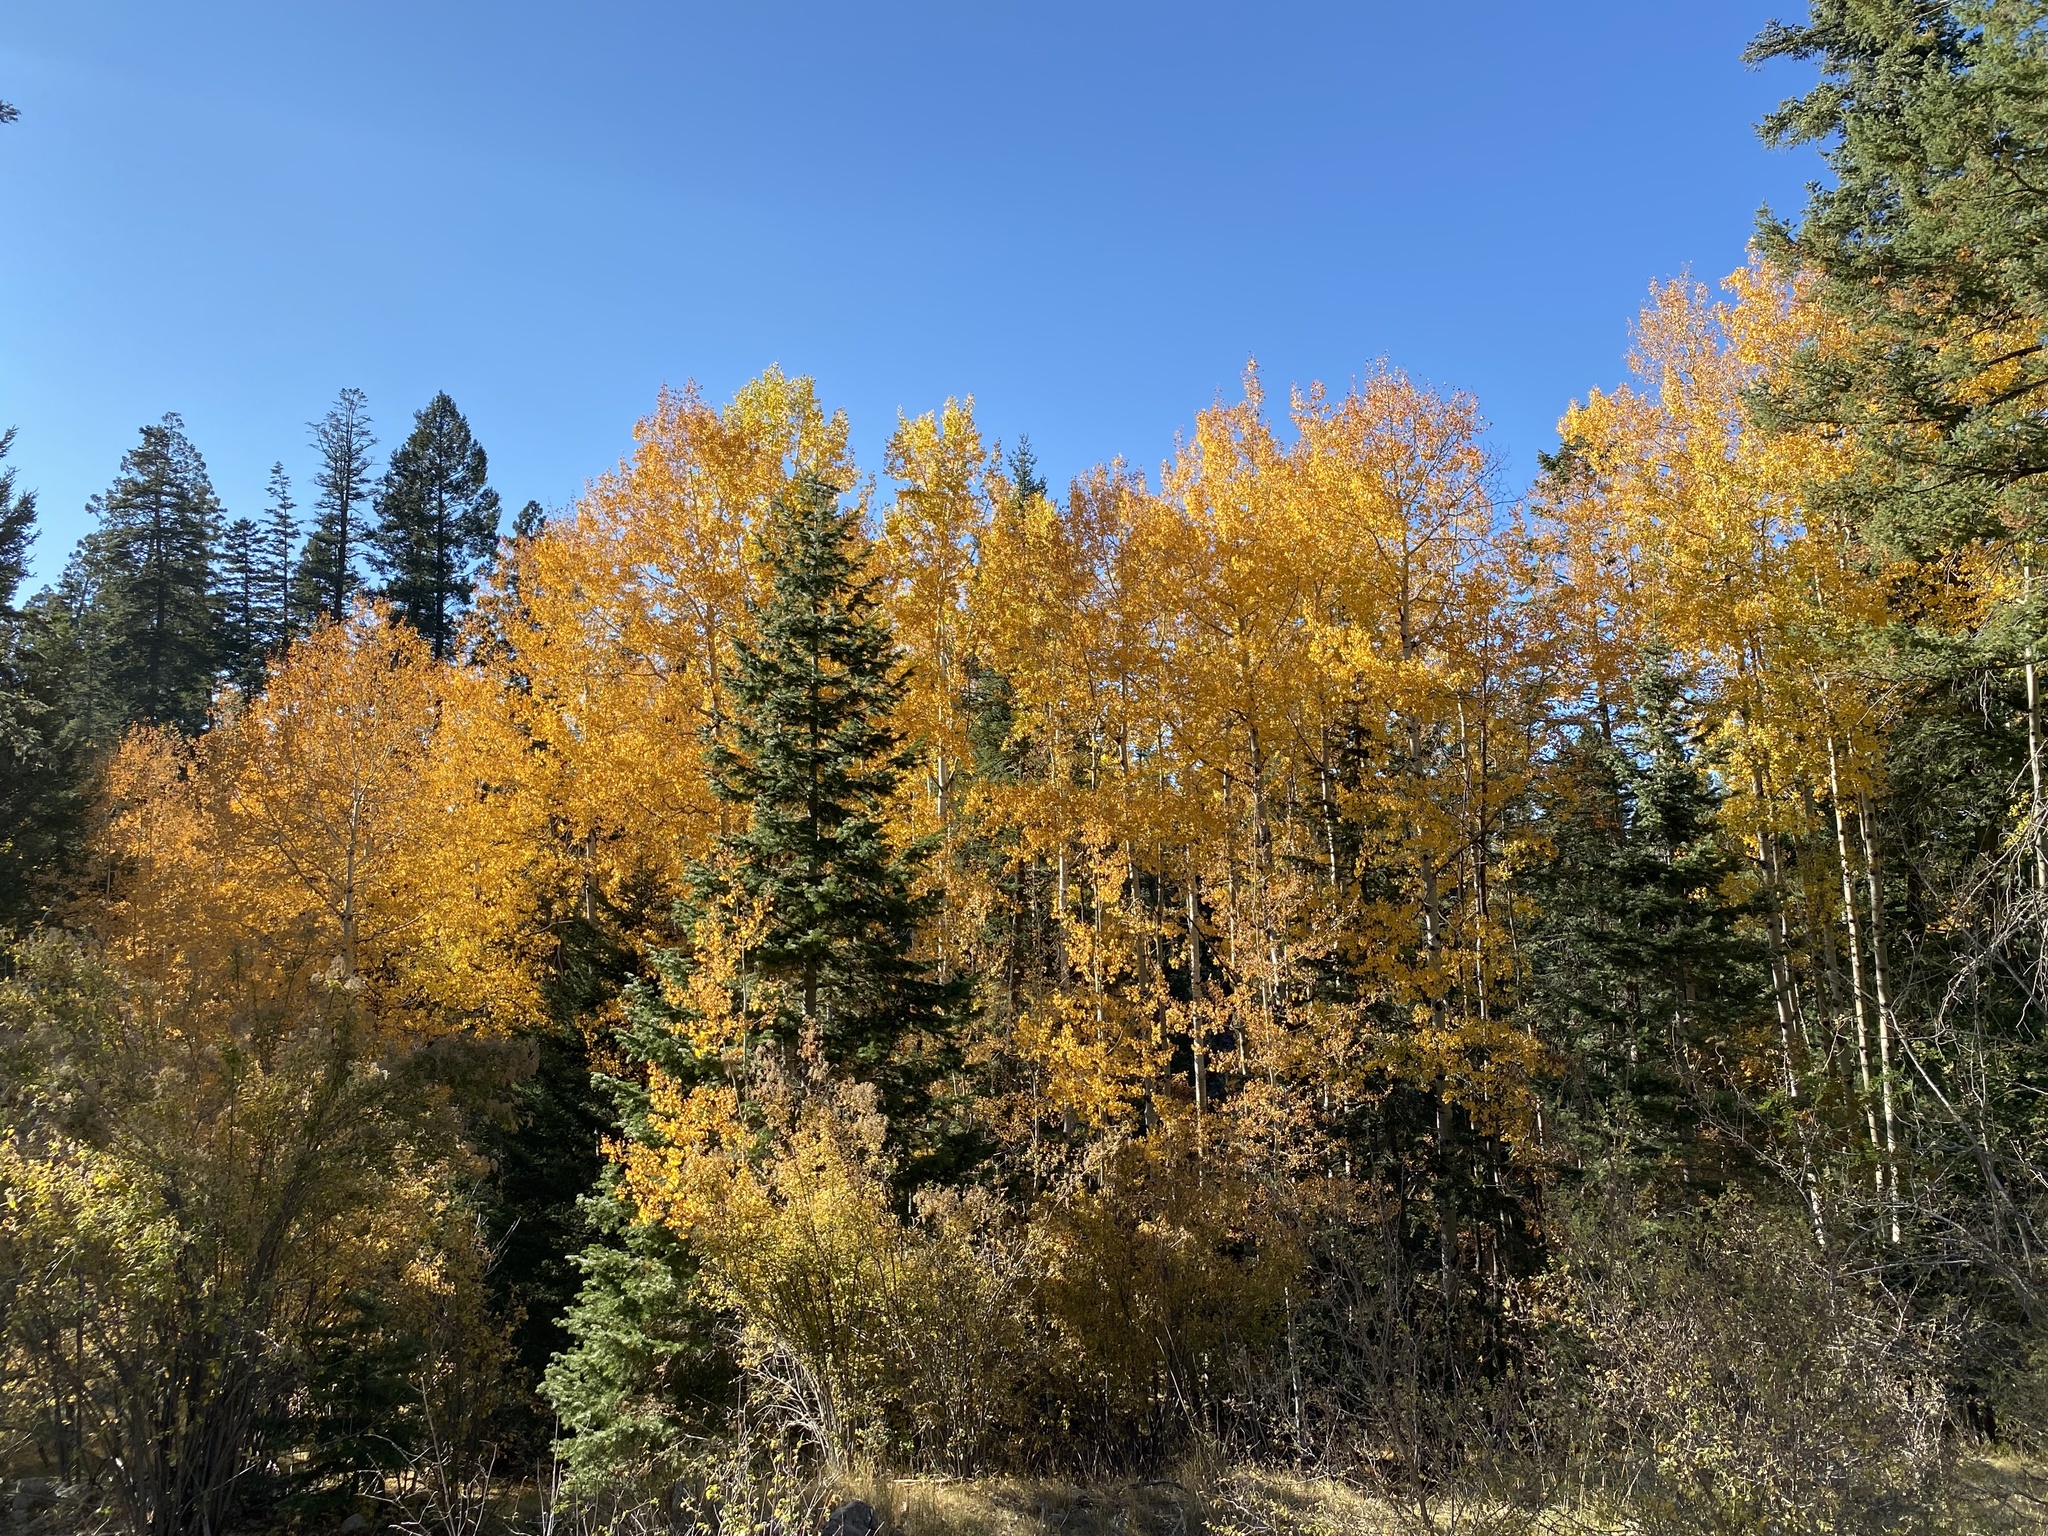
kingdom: Plantae
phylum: Tracheophyta
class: Magnoliopsida
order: Malpighiales
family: Salicaceae
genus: Populus
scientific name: Populus tremuloides
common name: Quaking aspen
